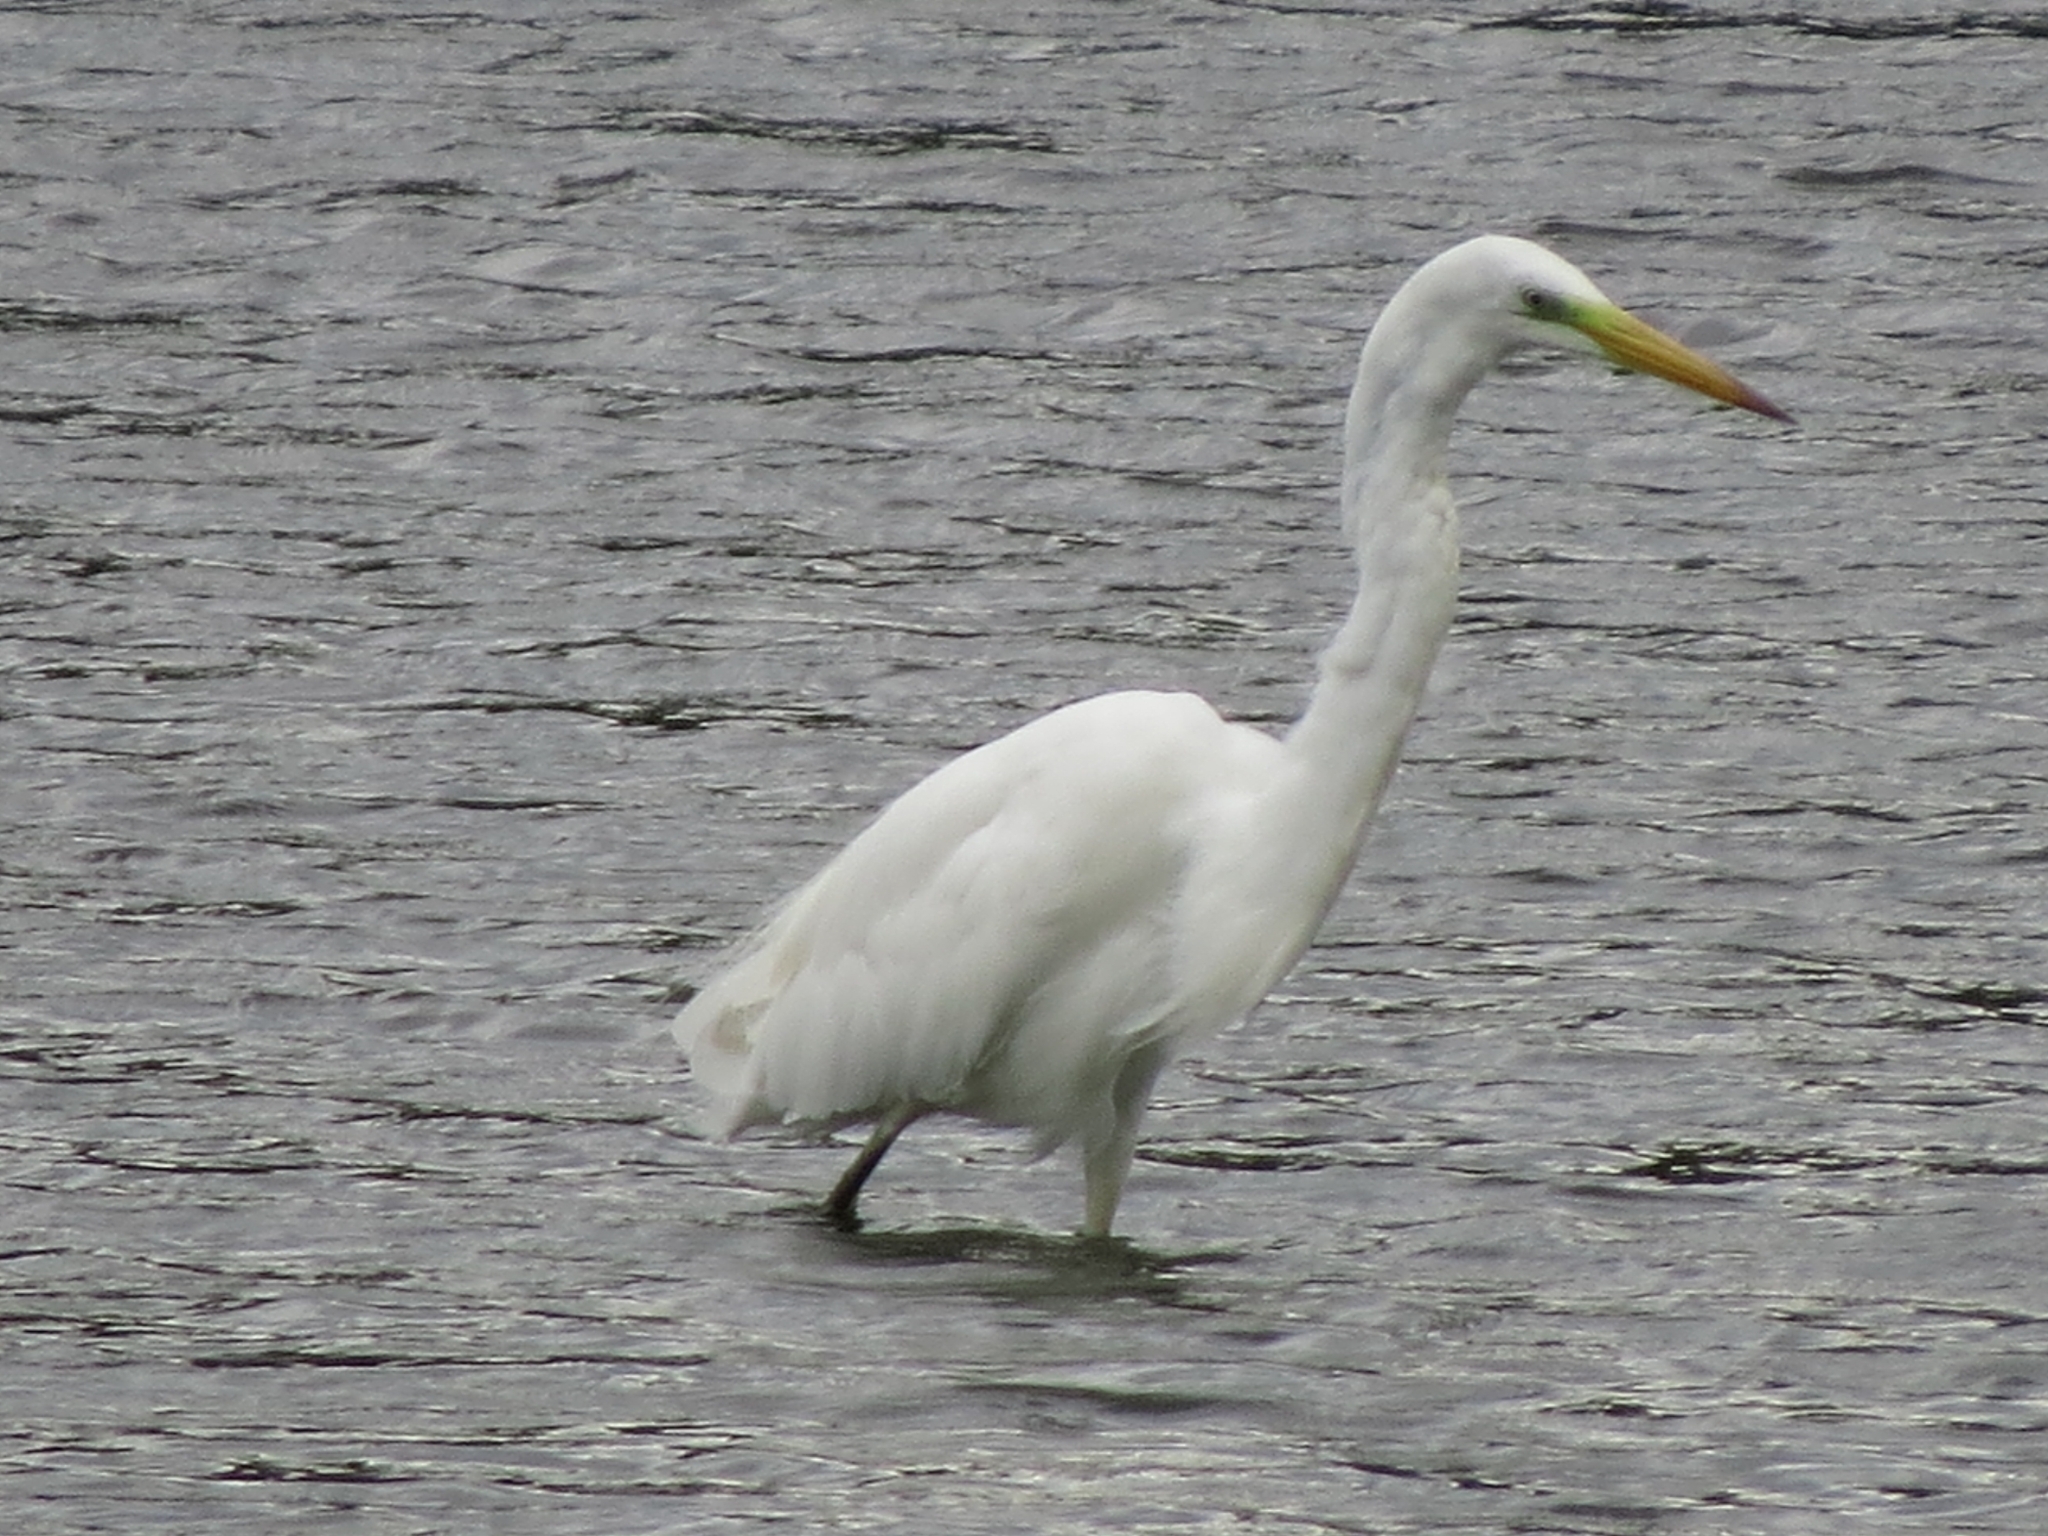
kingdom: Animalia
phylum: Chordata
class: Aves
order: Pelecaniformes
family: Ardeidae
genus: Ardea
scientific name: Ardea alba
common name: Great egret
